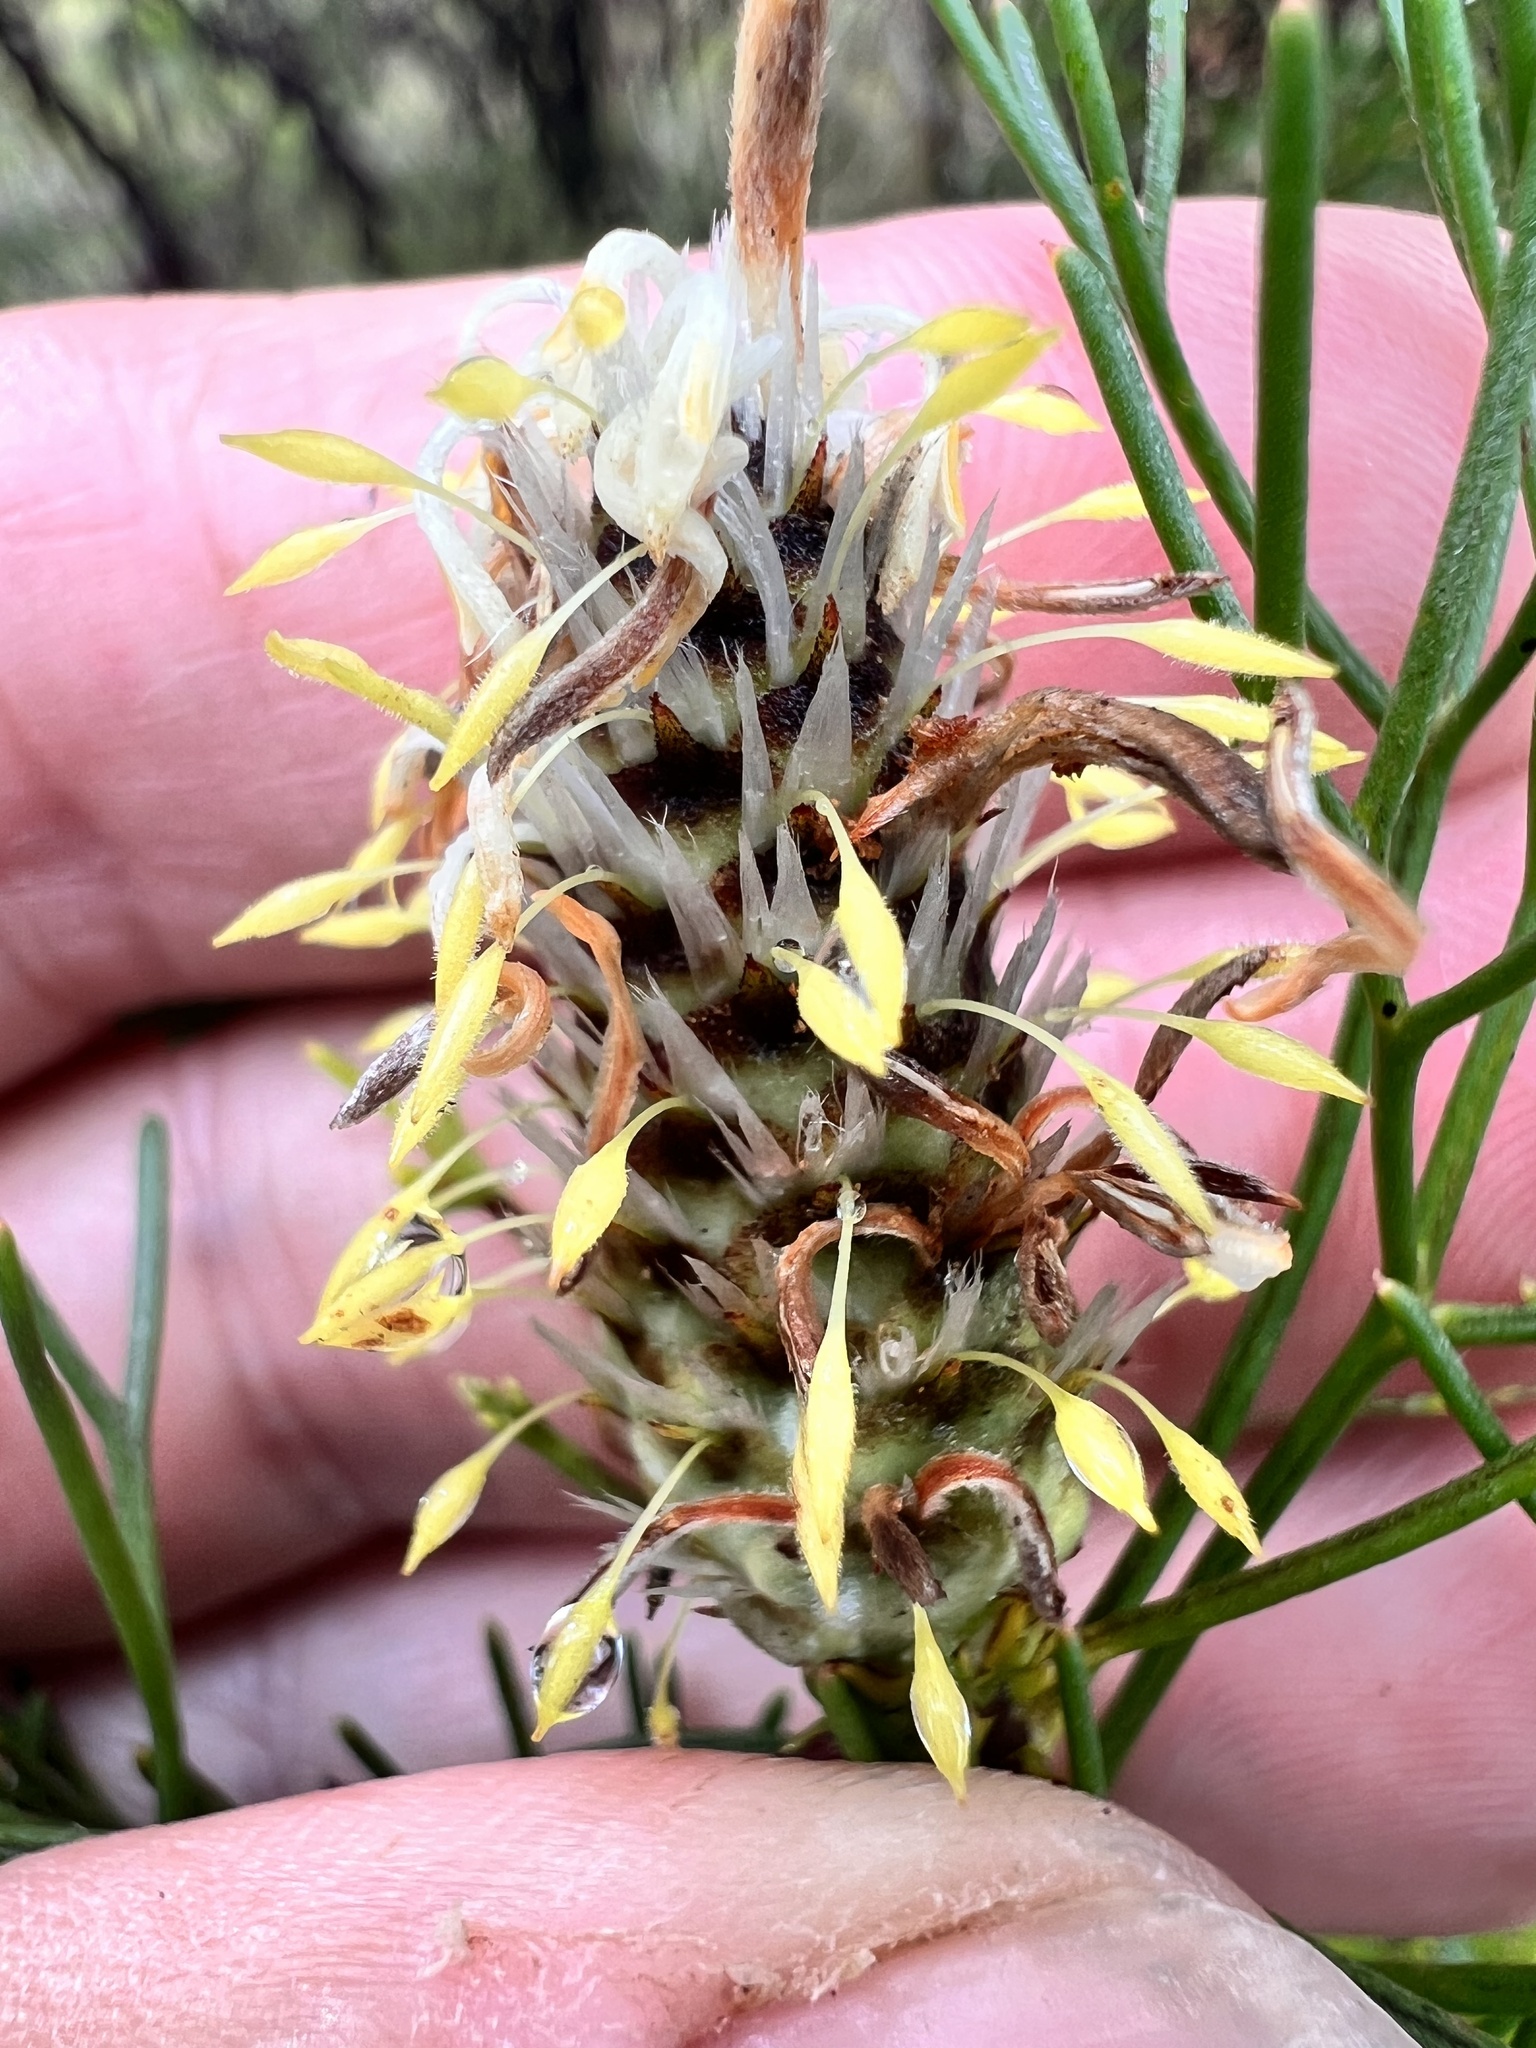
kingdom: Plantae
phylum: Tracheophyta
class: Magnoliopsida
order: Proteales
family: Proteaceae
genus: Petrophile
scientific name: Petrophile pulchella
